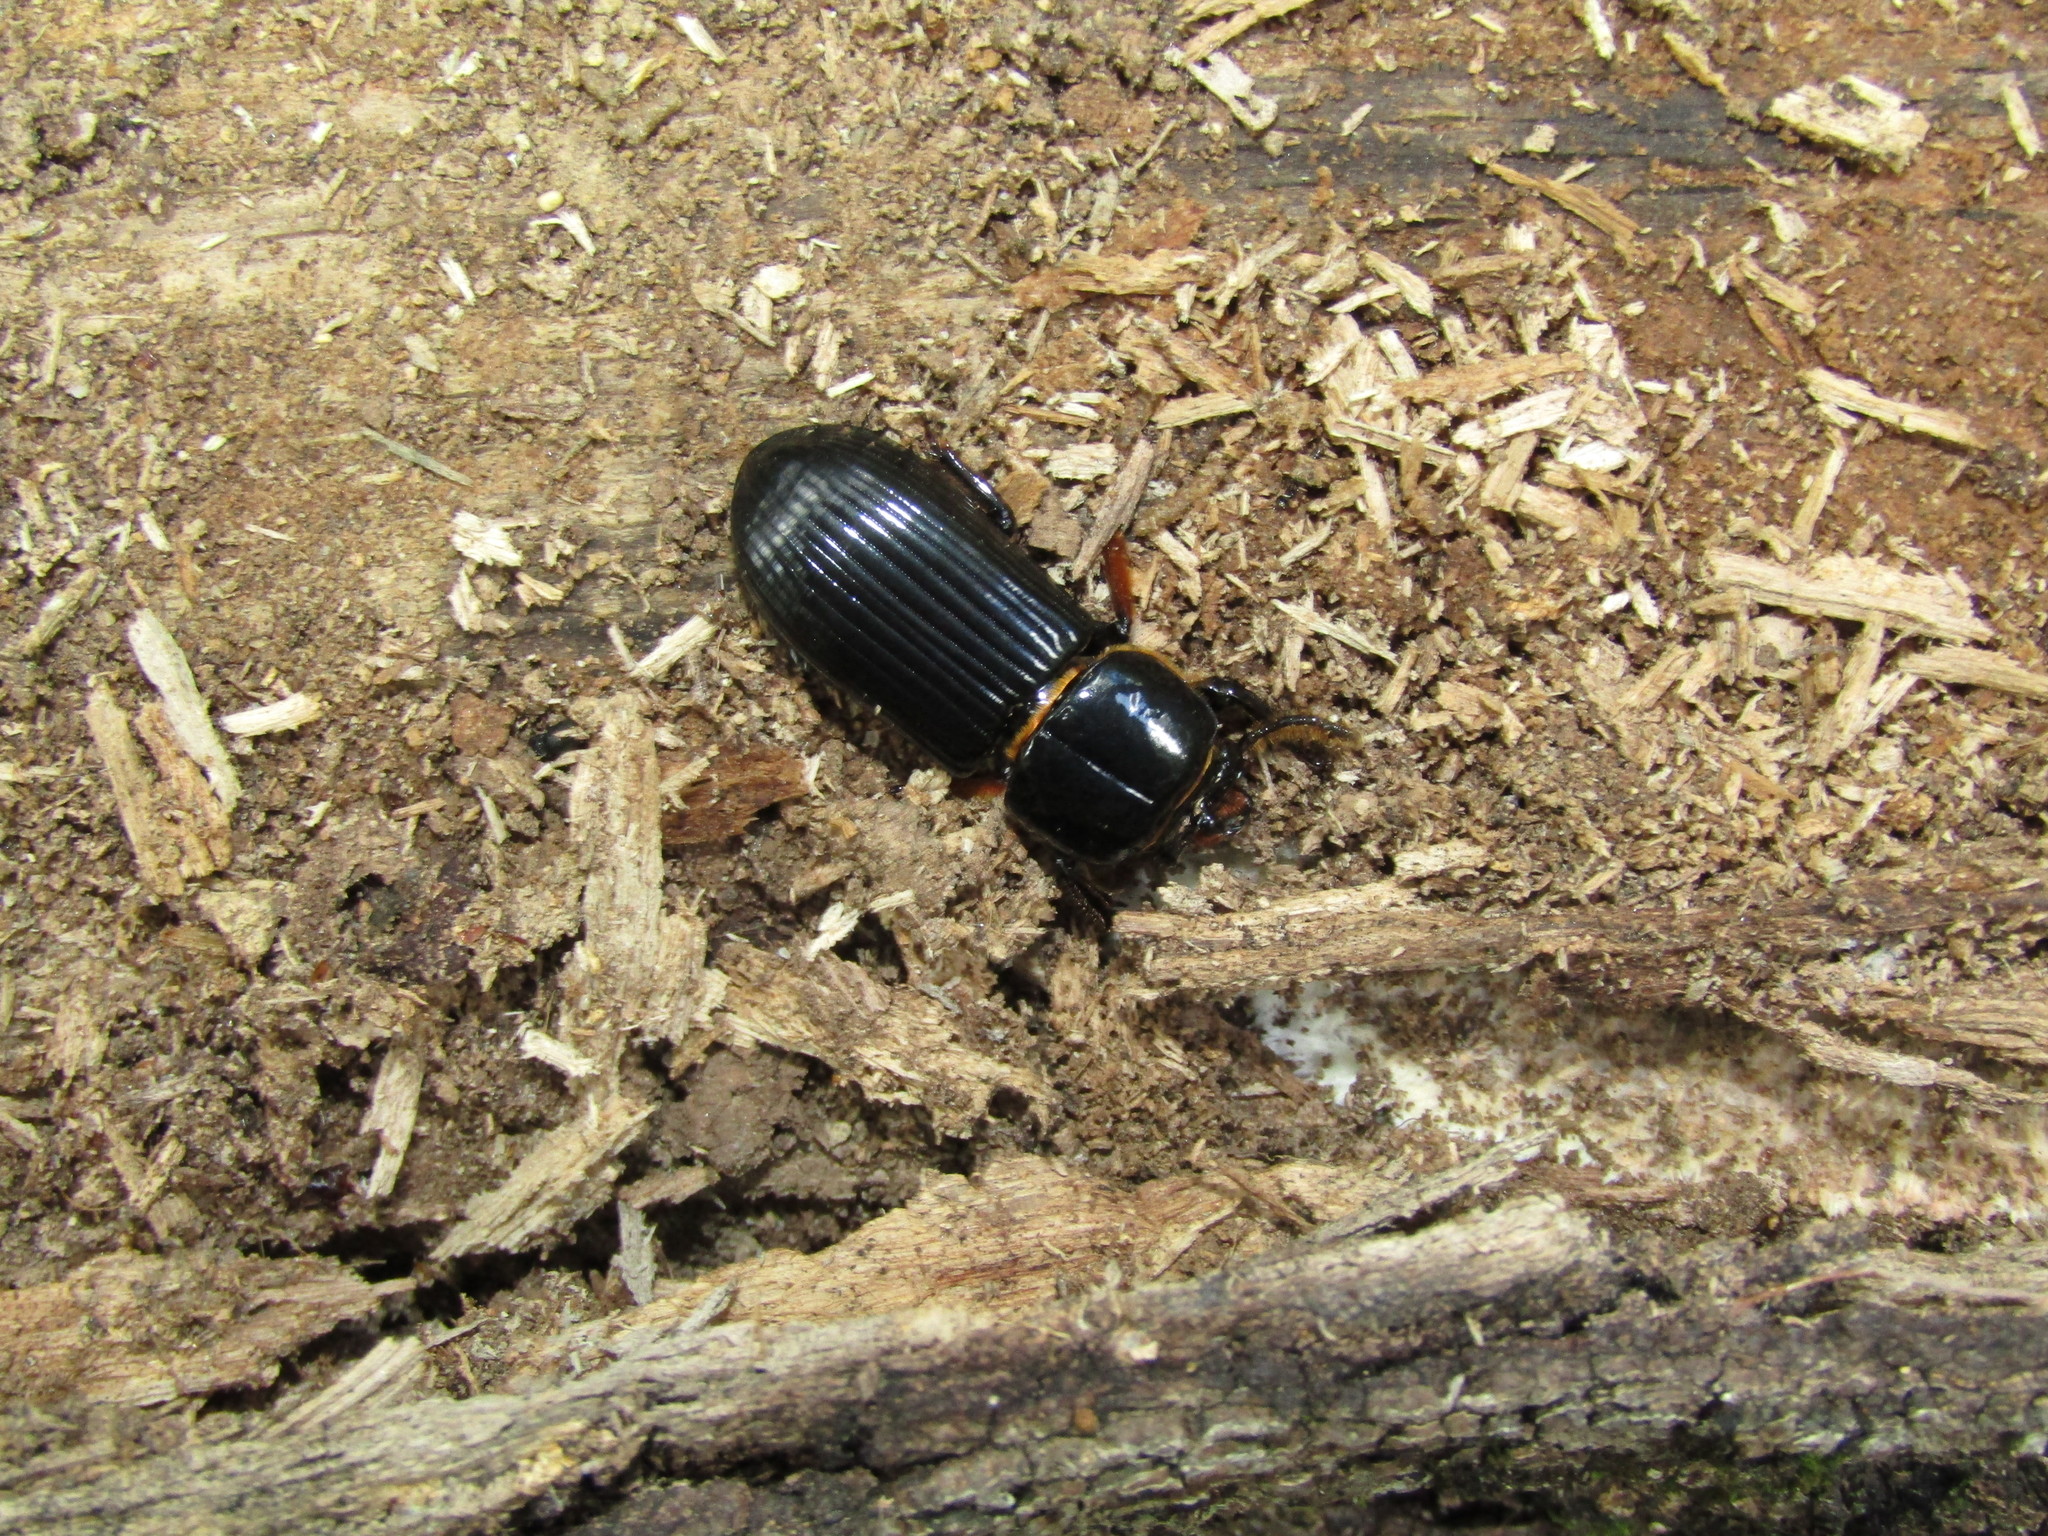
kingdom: Animalia
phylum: Arthropoda
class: Insecta
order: Coleoptera
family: Passalidae
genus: Odontotaenius
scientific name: Odontotaenius disjunctus
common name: Patent leather beetle
